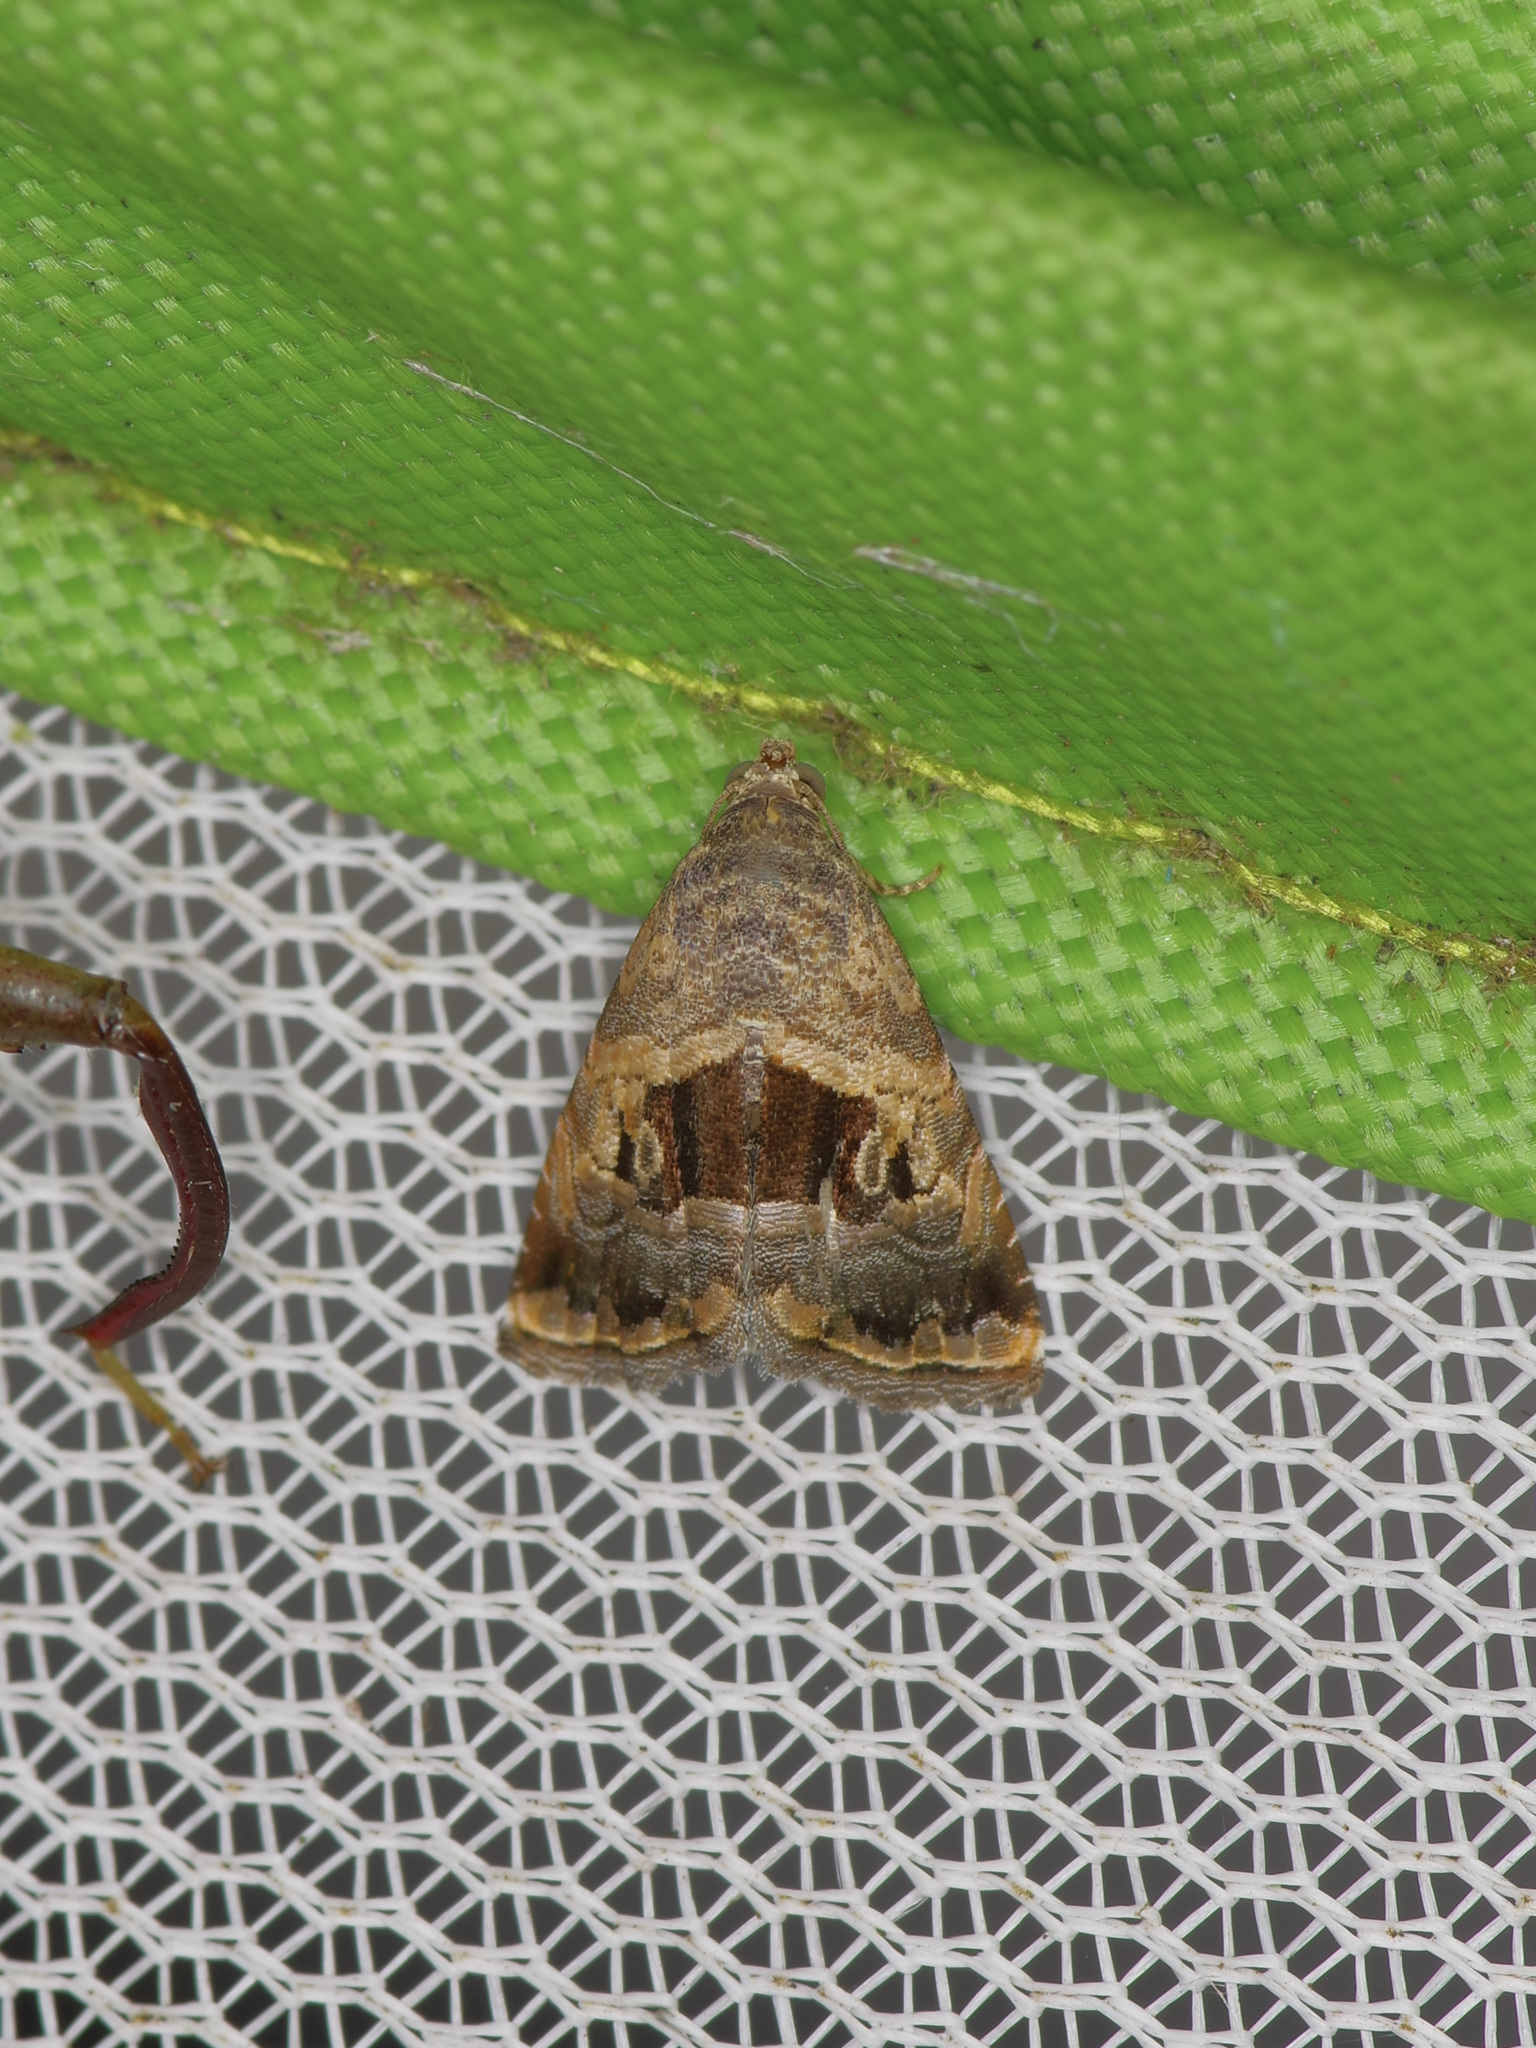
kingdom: Animalia
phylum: Arthropoda
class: Insecta
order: Lepidoptera
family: Noctuidae
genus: Tripudia
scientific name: Tripudia quadrifera
